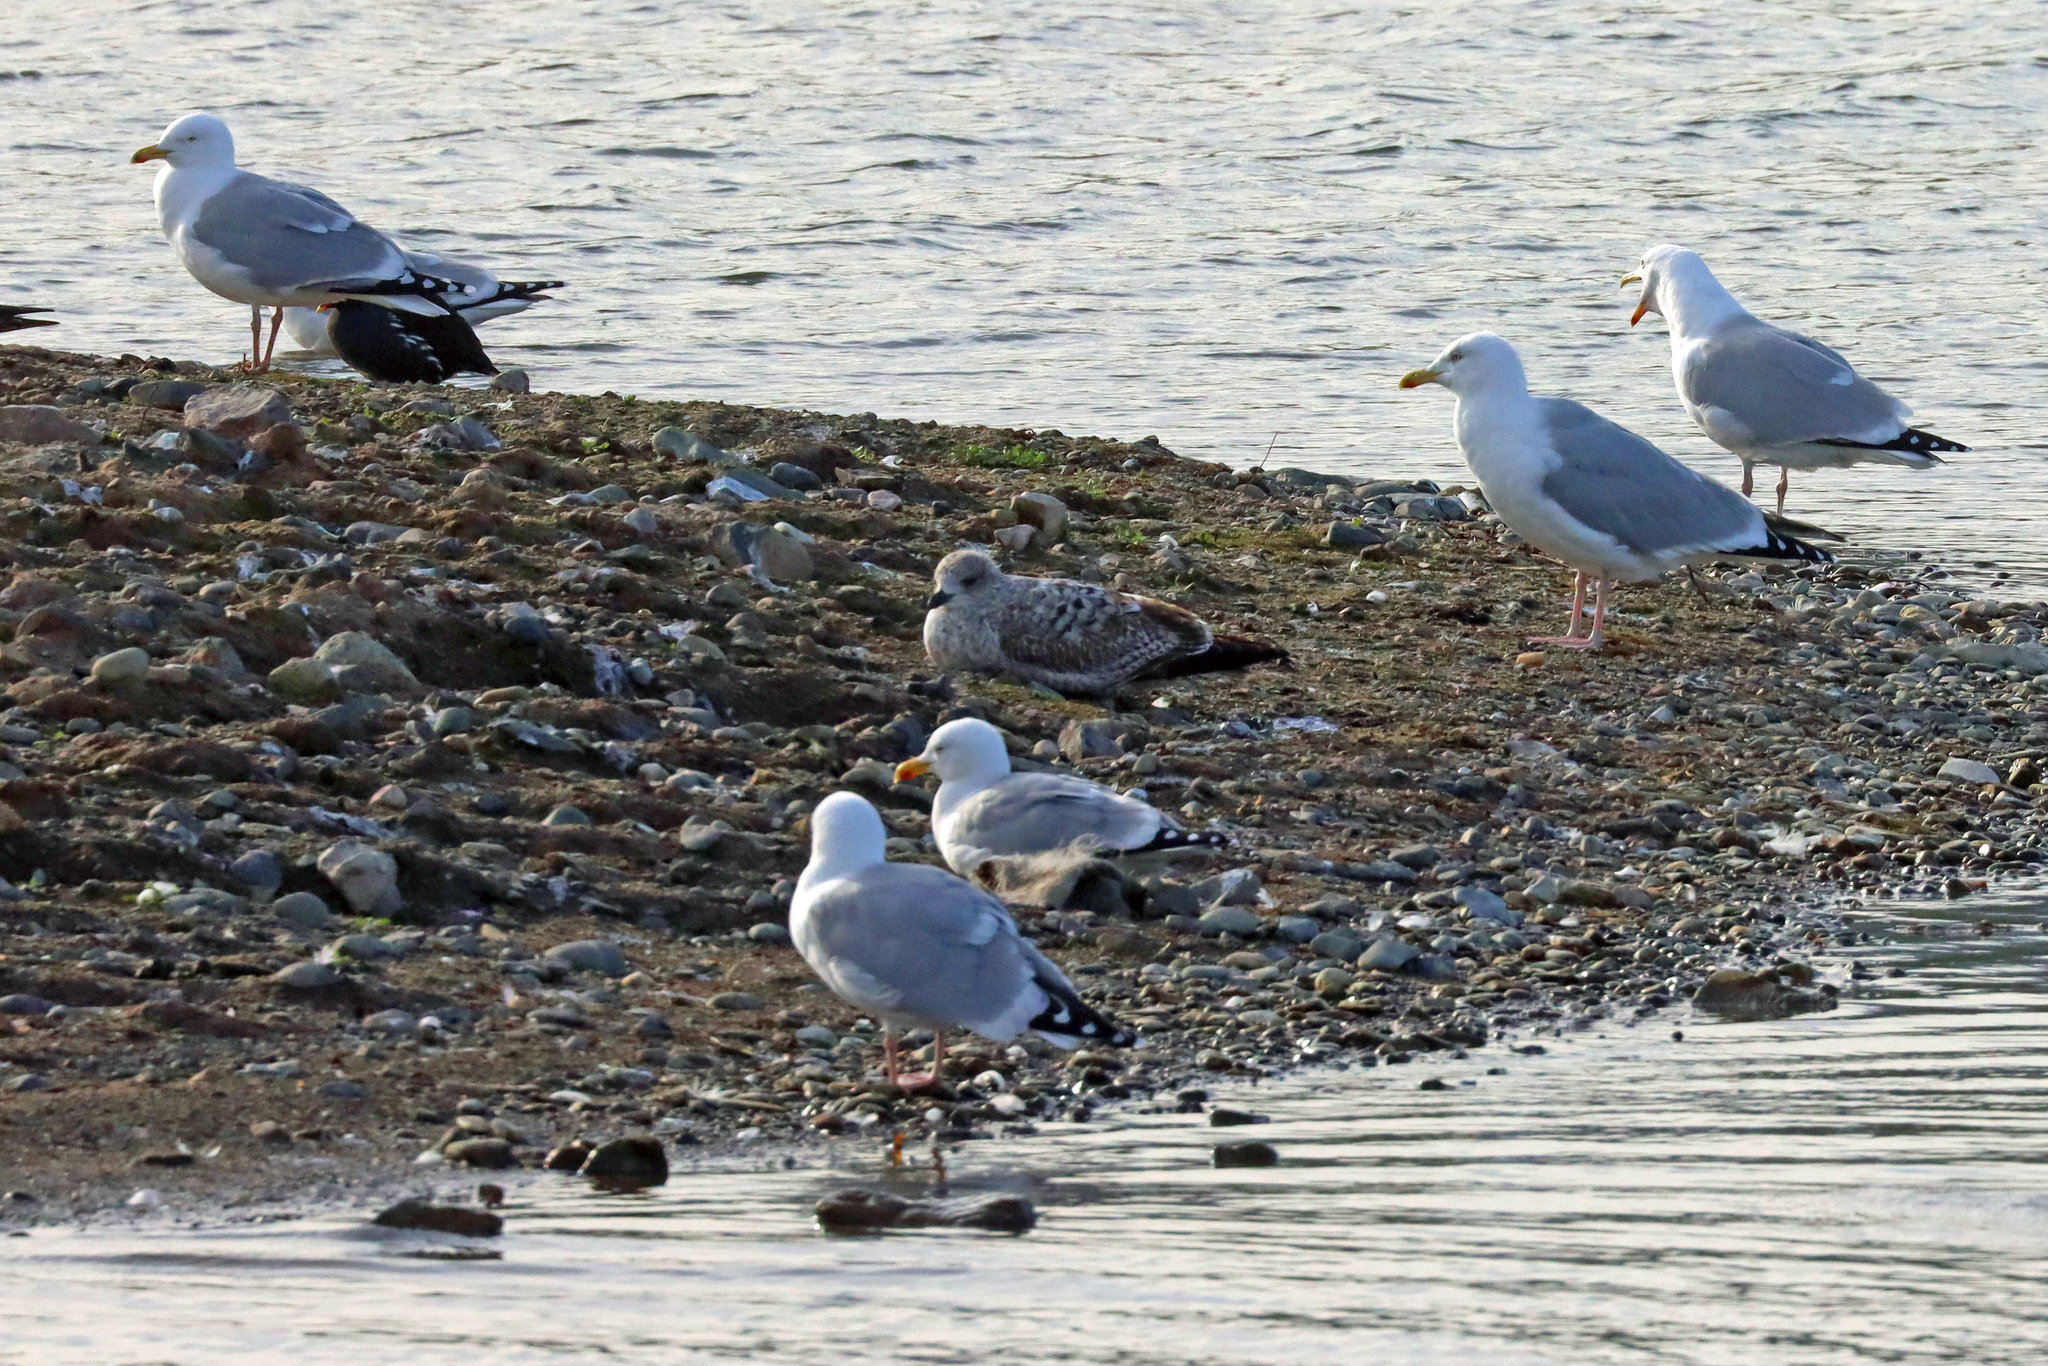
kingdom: Animalia
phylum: Chordata
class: Aves
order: Charadriiformes
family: Laridae
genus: Larus
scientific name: Larus argentatus
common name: Herring gull
